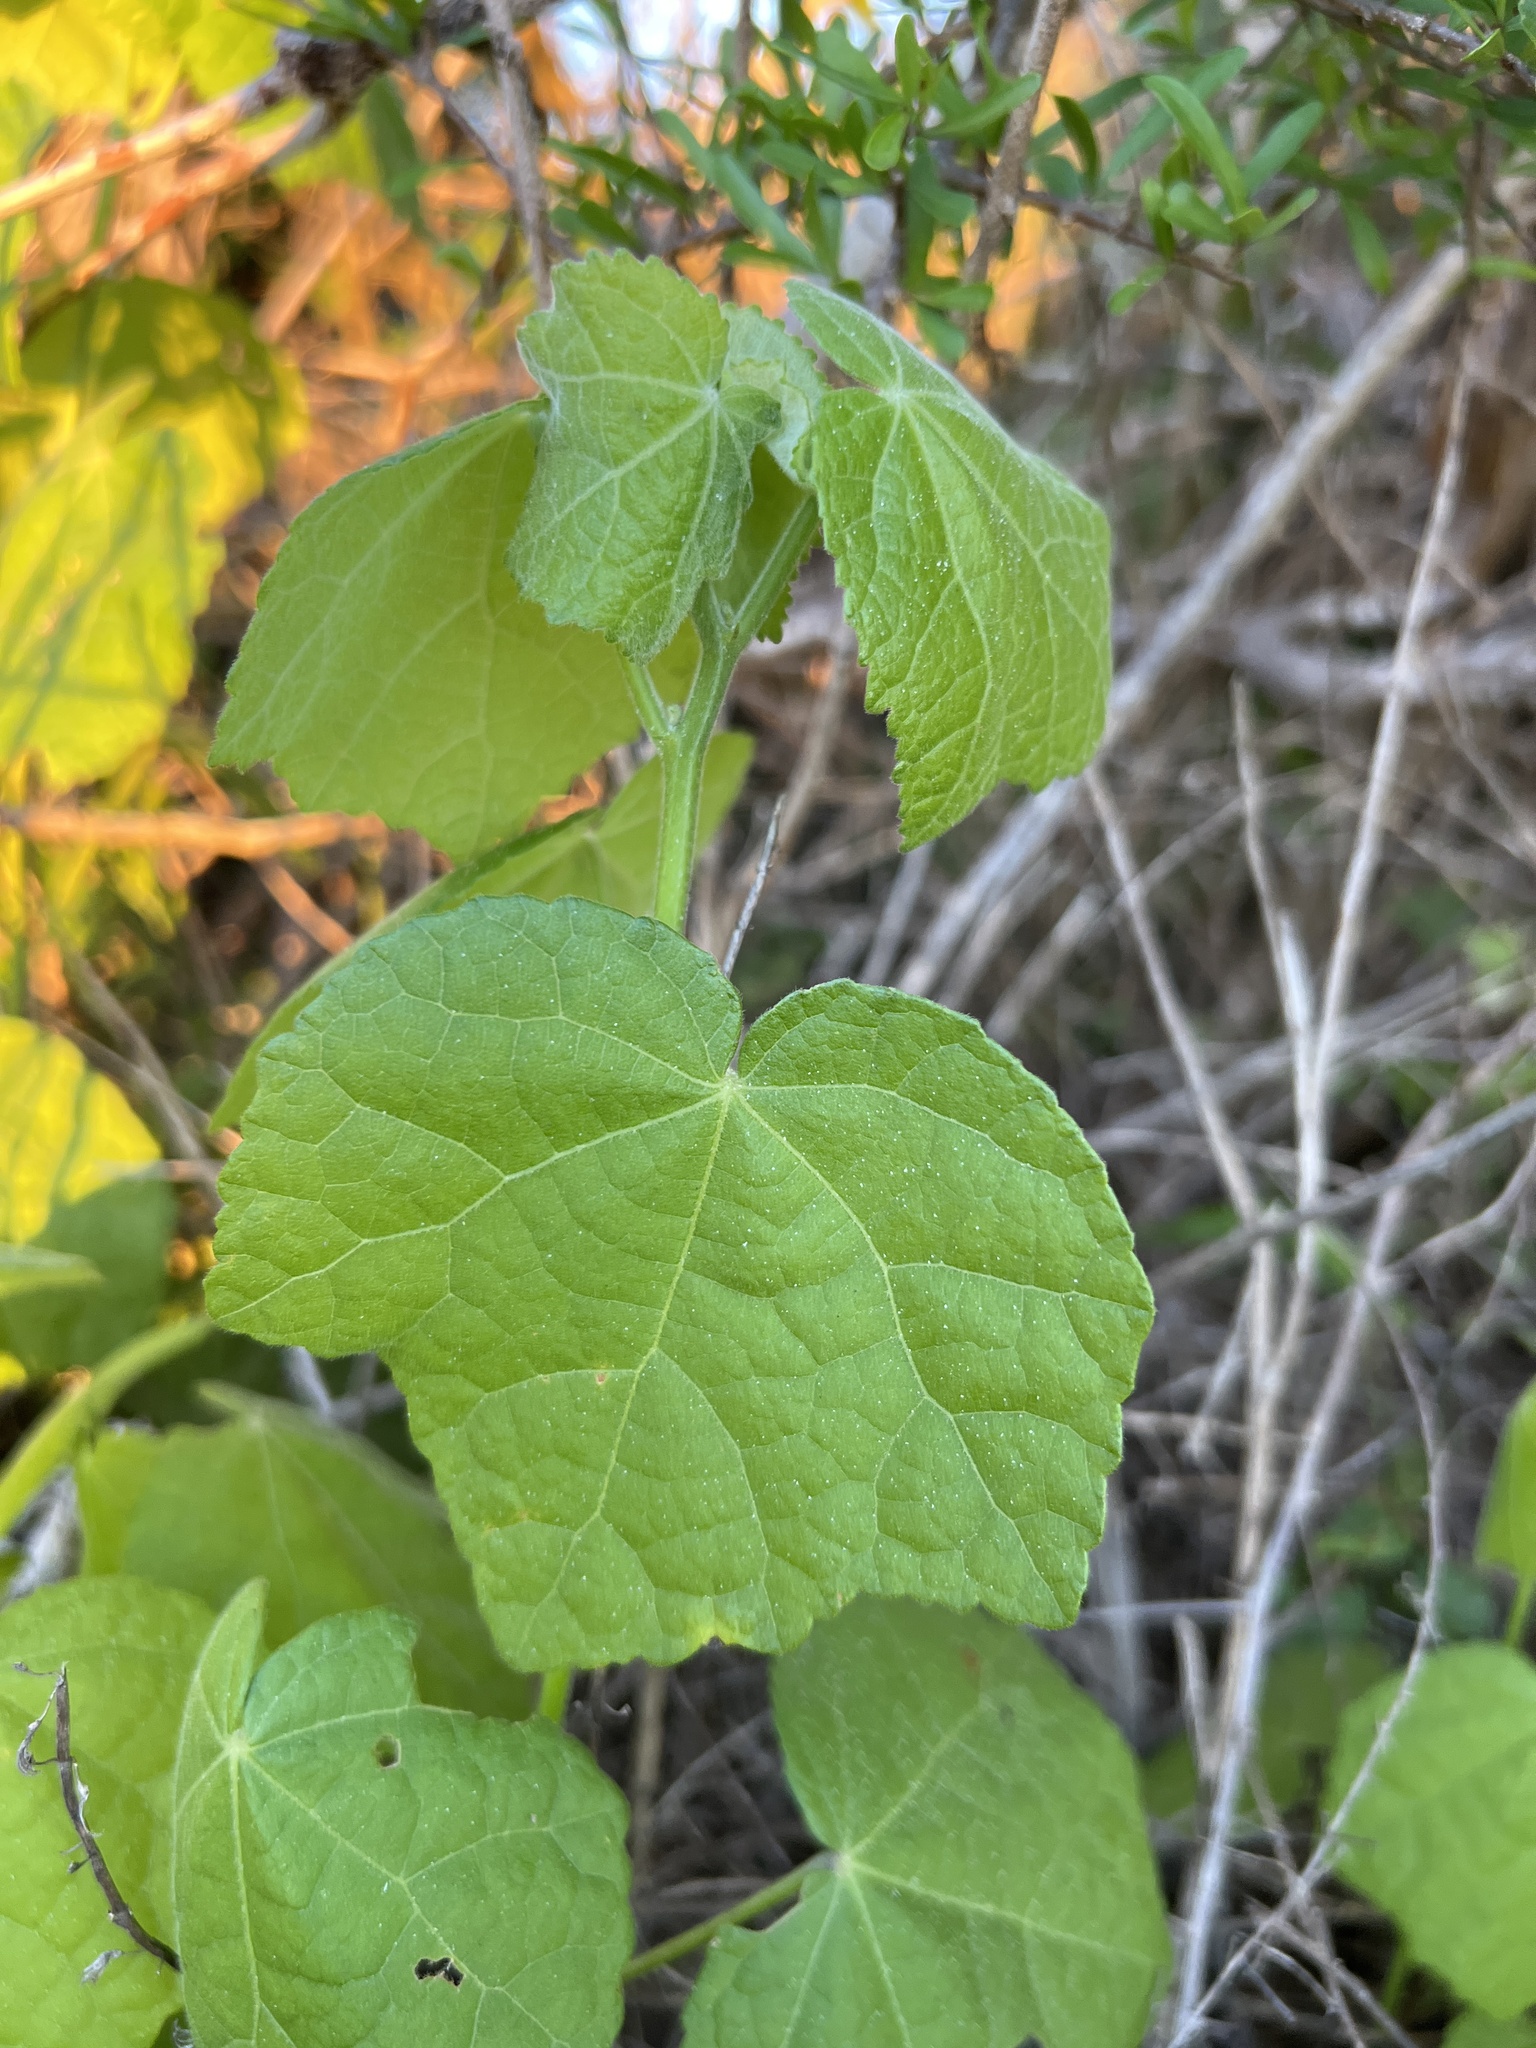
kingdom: Plantae
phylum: Tracheophyta
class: Magnoliopsida
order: Malvales
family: Malvaceae
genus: Malvaviscus
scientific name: Malvaviscus arboreus
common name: Wax mallow
